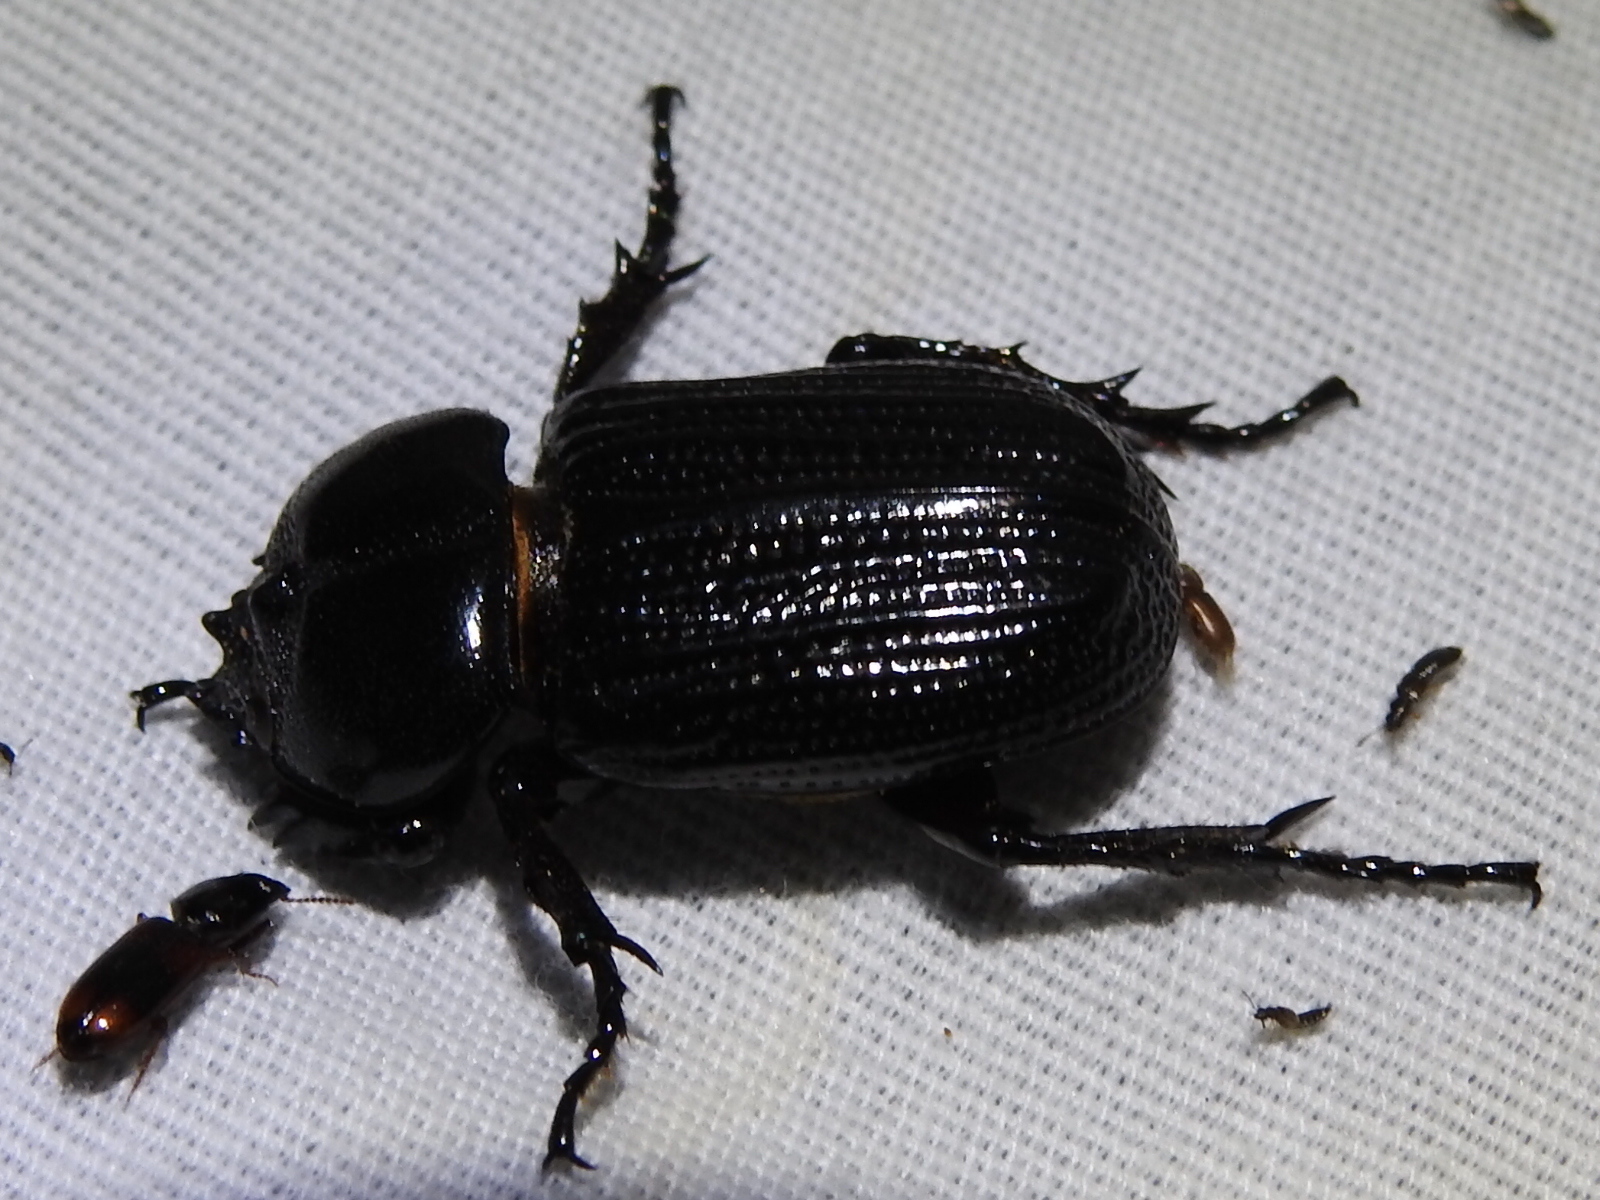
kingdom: Animalia
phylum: Arthropoda
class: Insecta
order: Coleoptera
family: Scarabaeidae
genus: Phileurus
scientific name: Phileurus valgus
